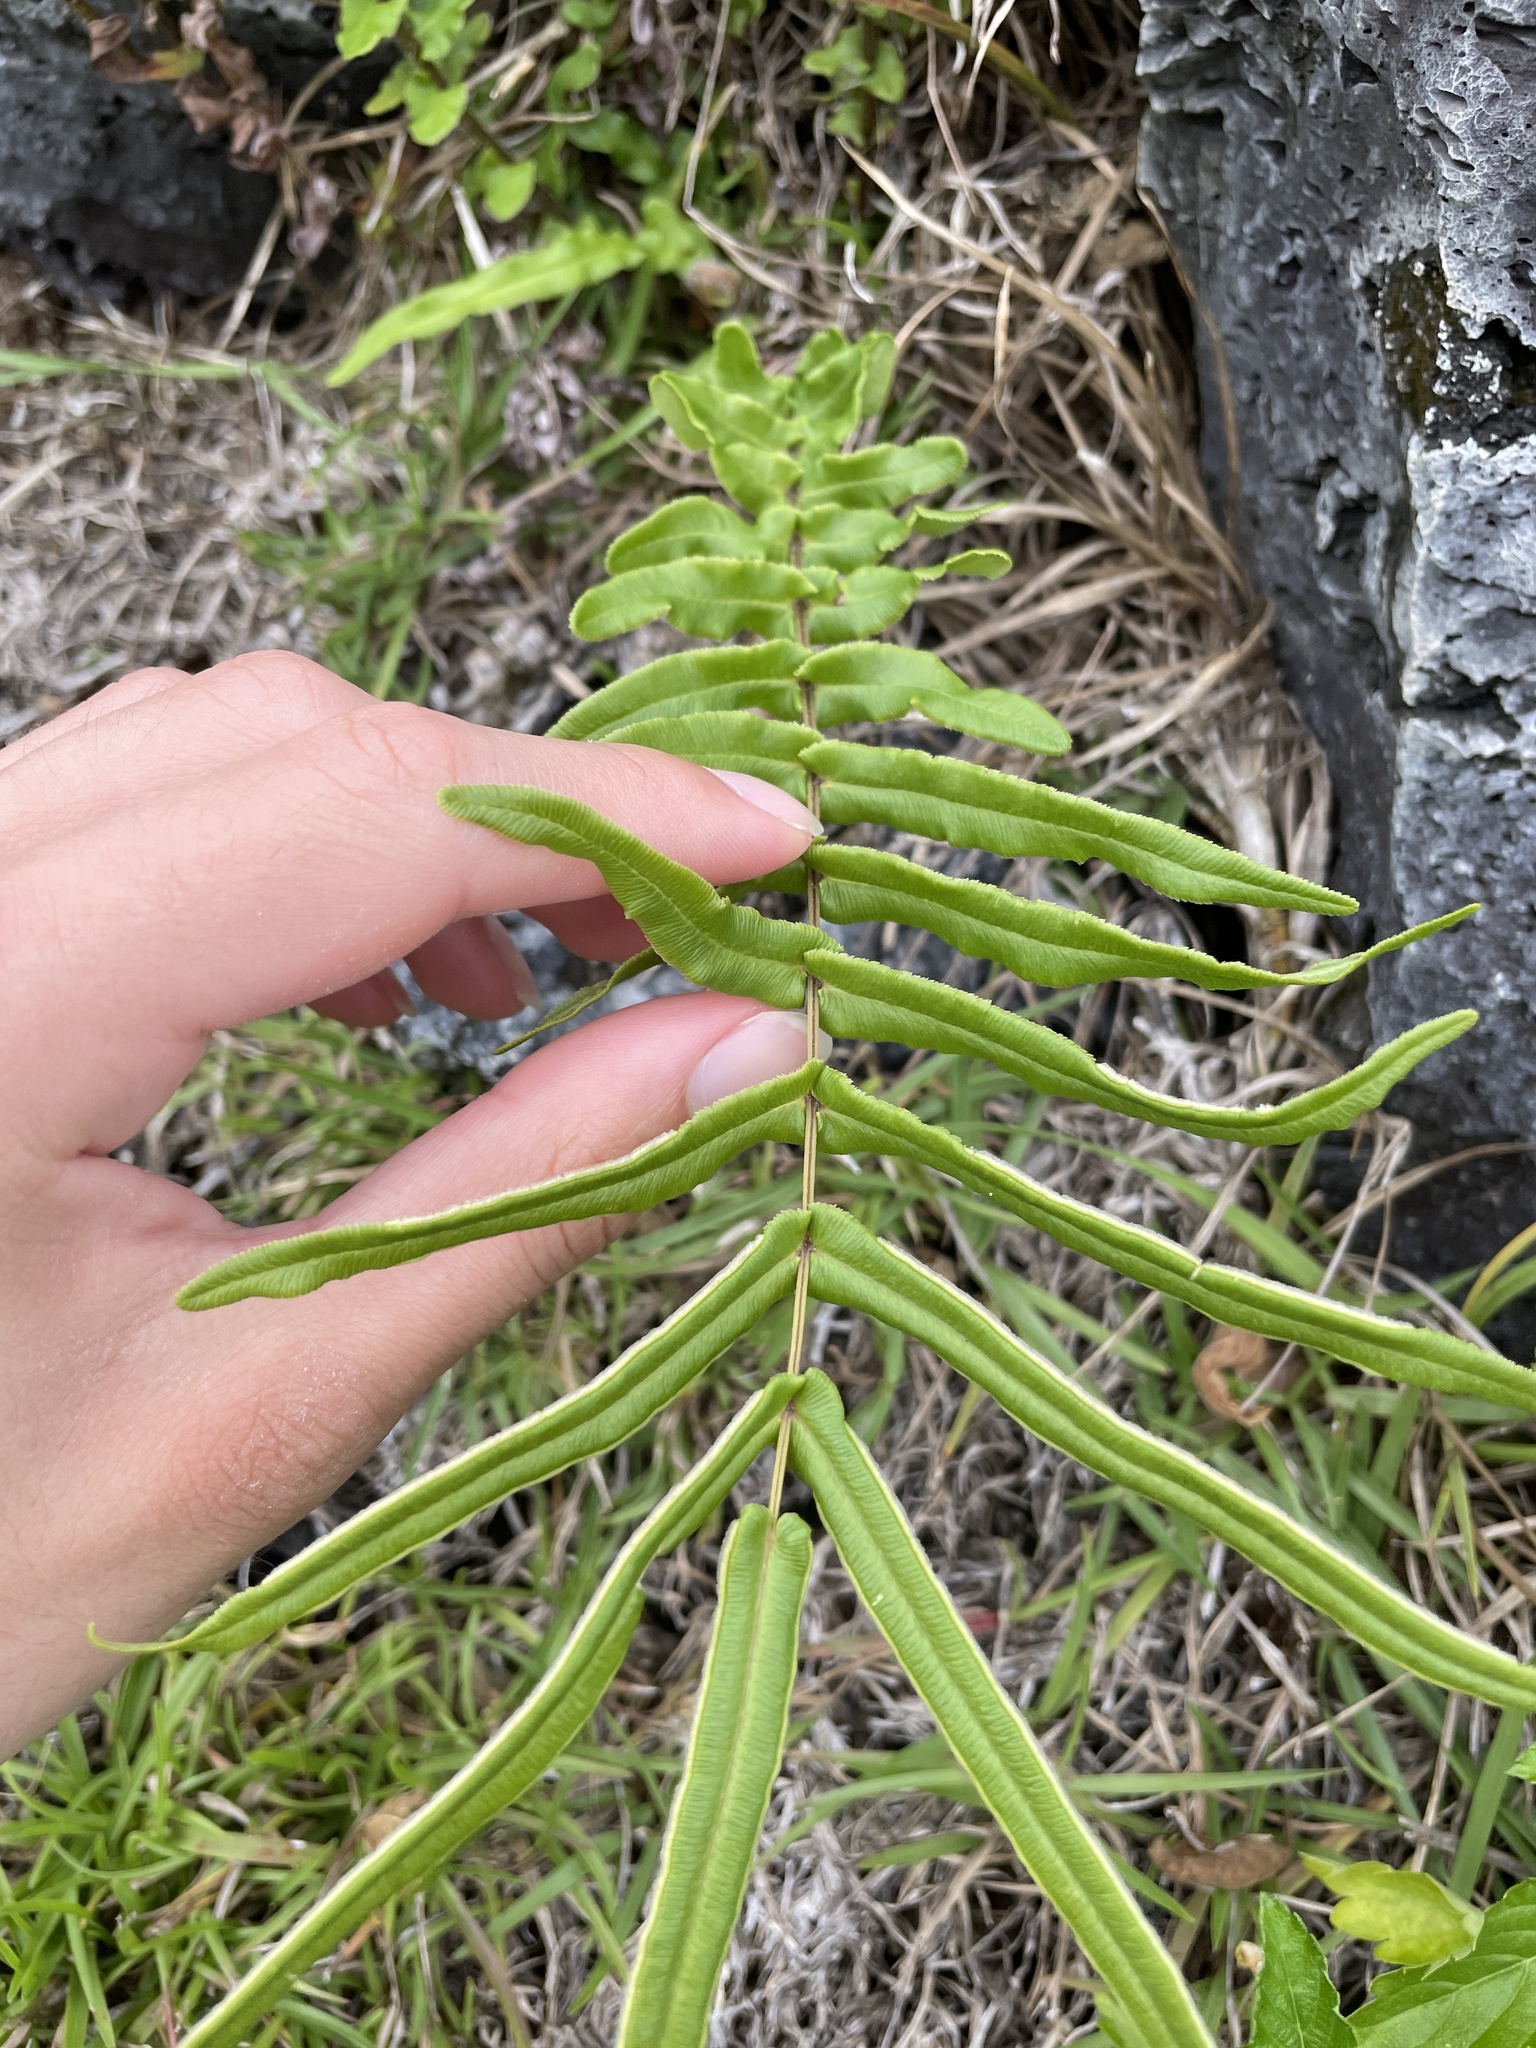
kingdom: Plantae
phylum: Tracheophyta
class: Polypodiopsida
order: Polypodiales
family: Pteridaceae
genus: Pteris
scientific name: Pteris vittata
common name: Ladder brake
